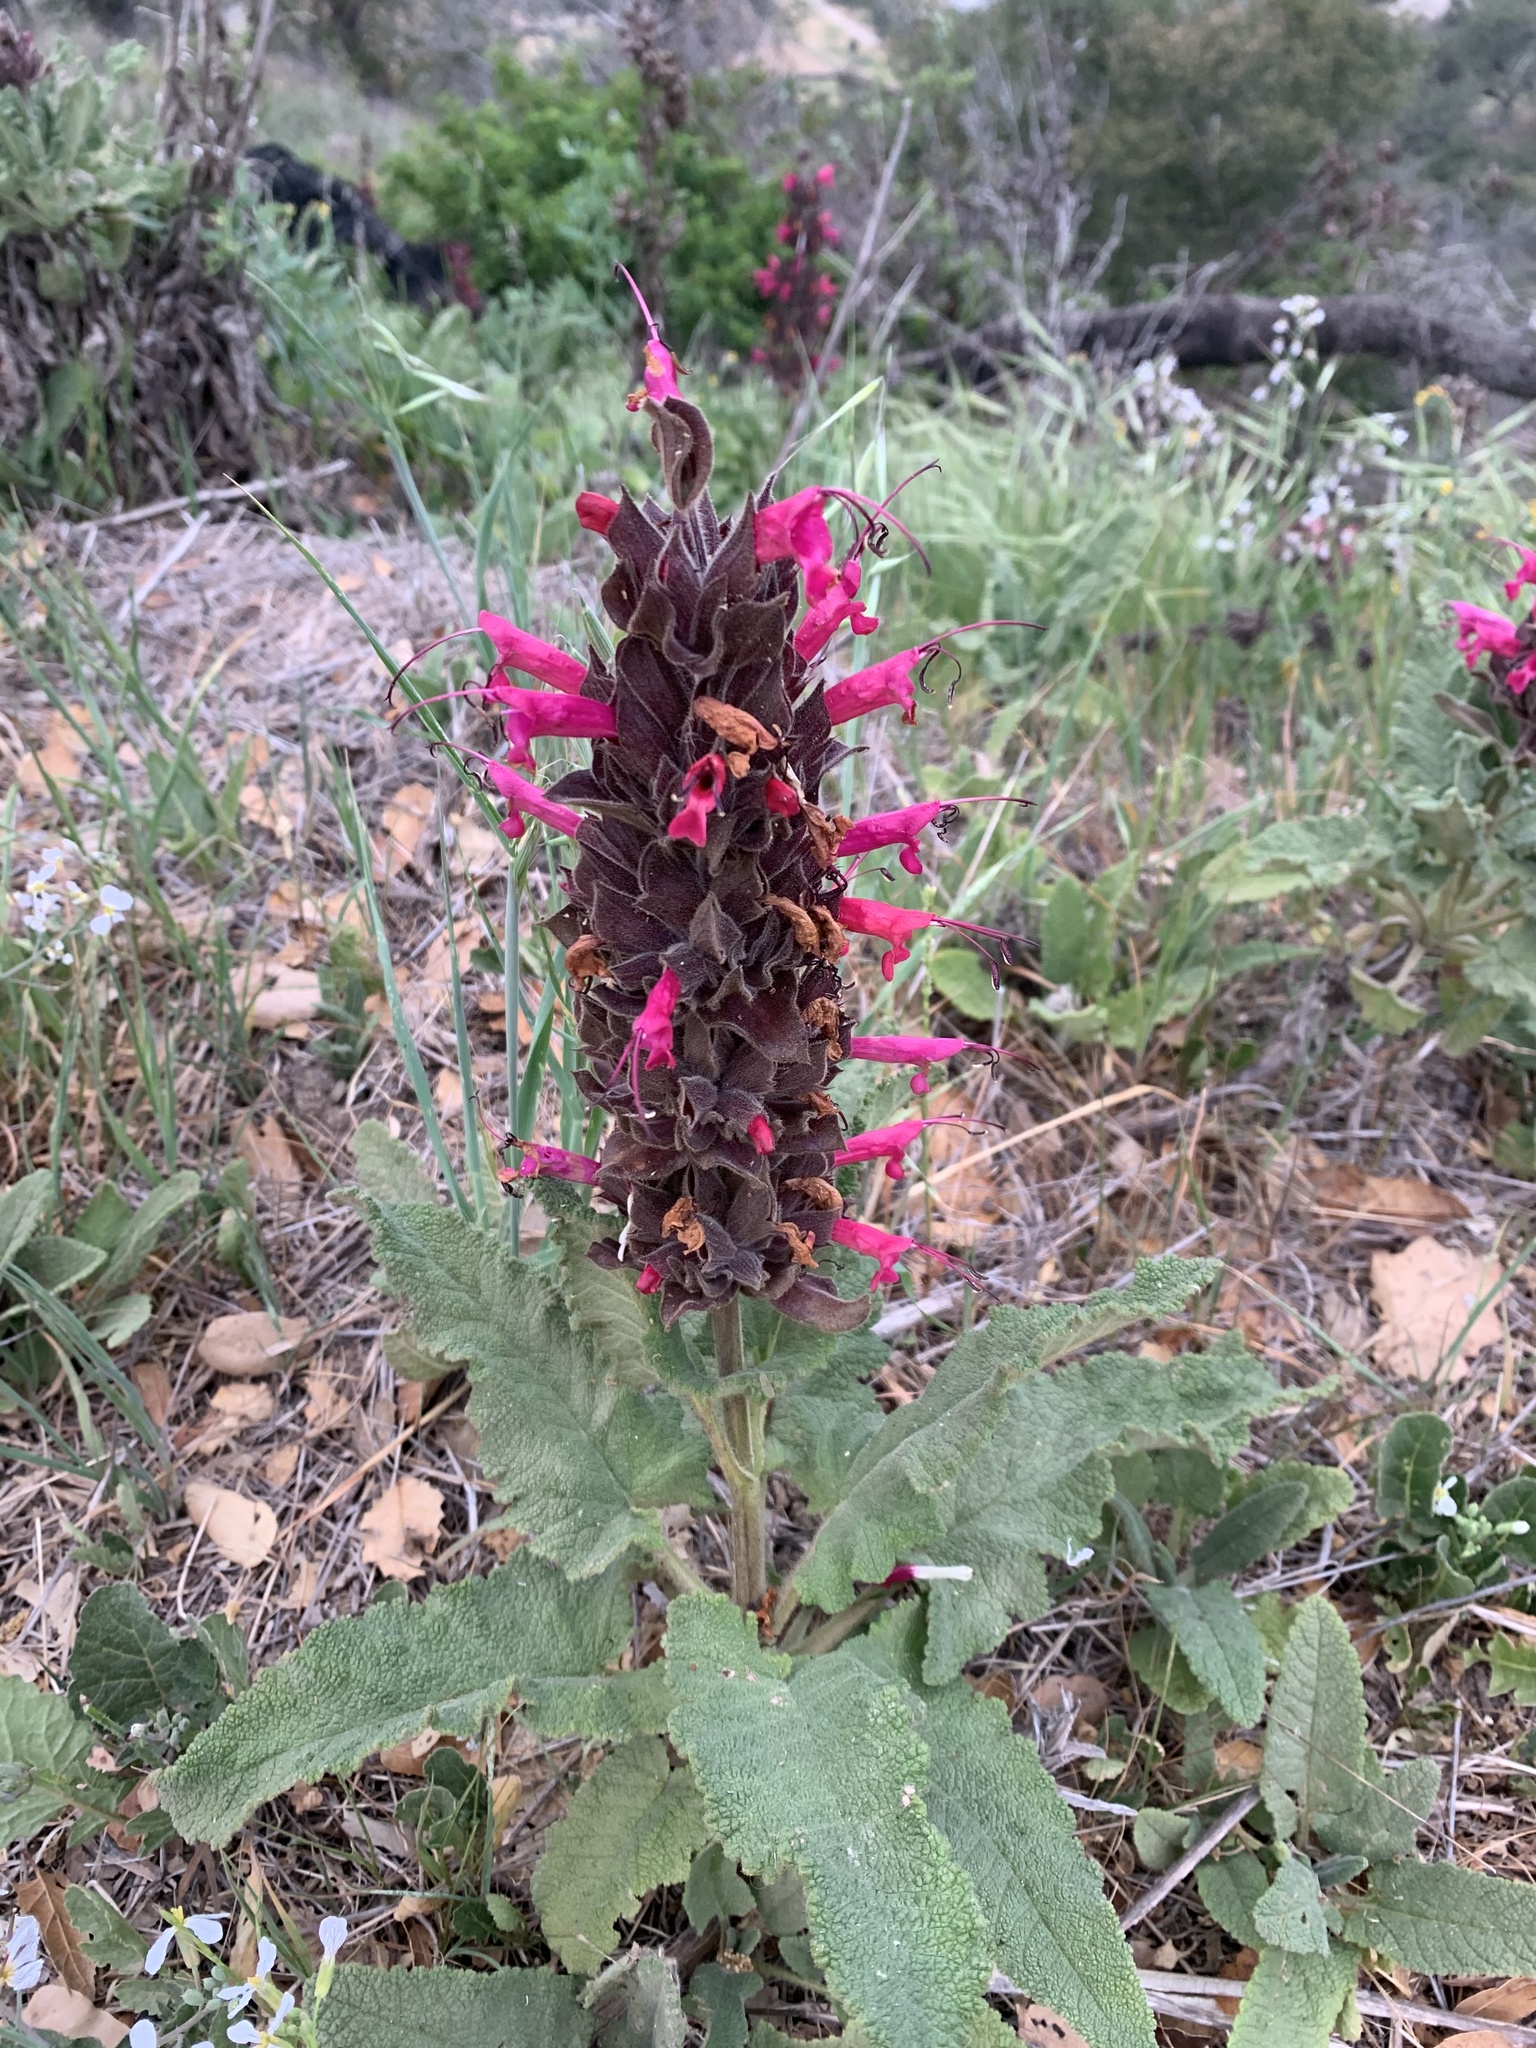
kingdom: Plantae
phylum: Tracheophyta
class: Magnoliopsida
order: Lamiales
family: Lamiaceae
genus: Salvia
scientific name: Salvia spathacea
